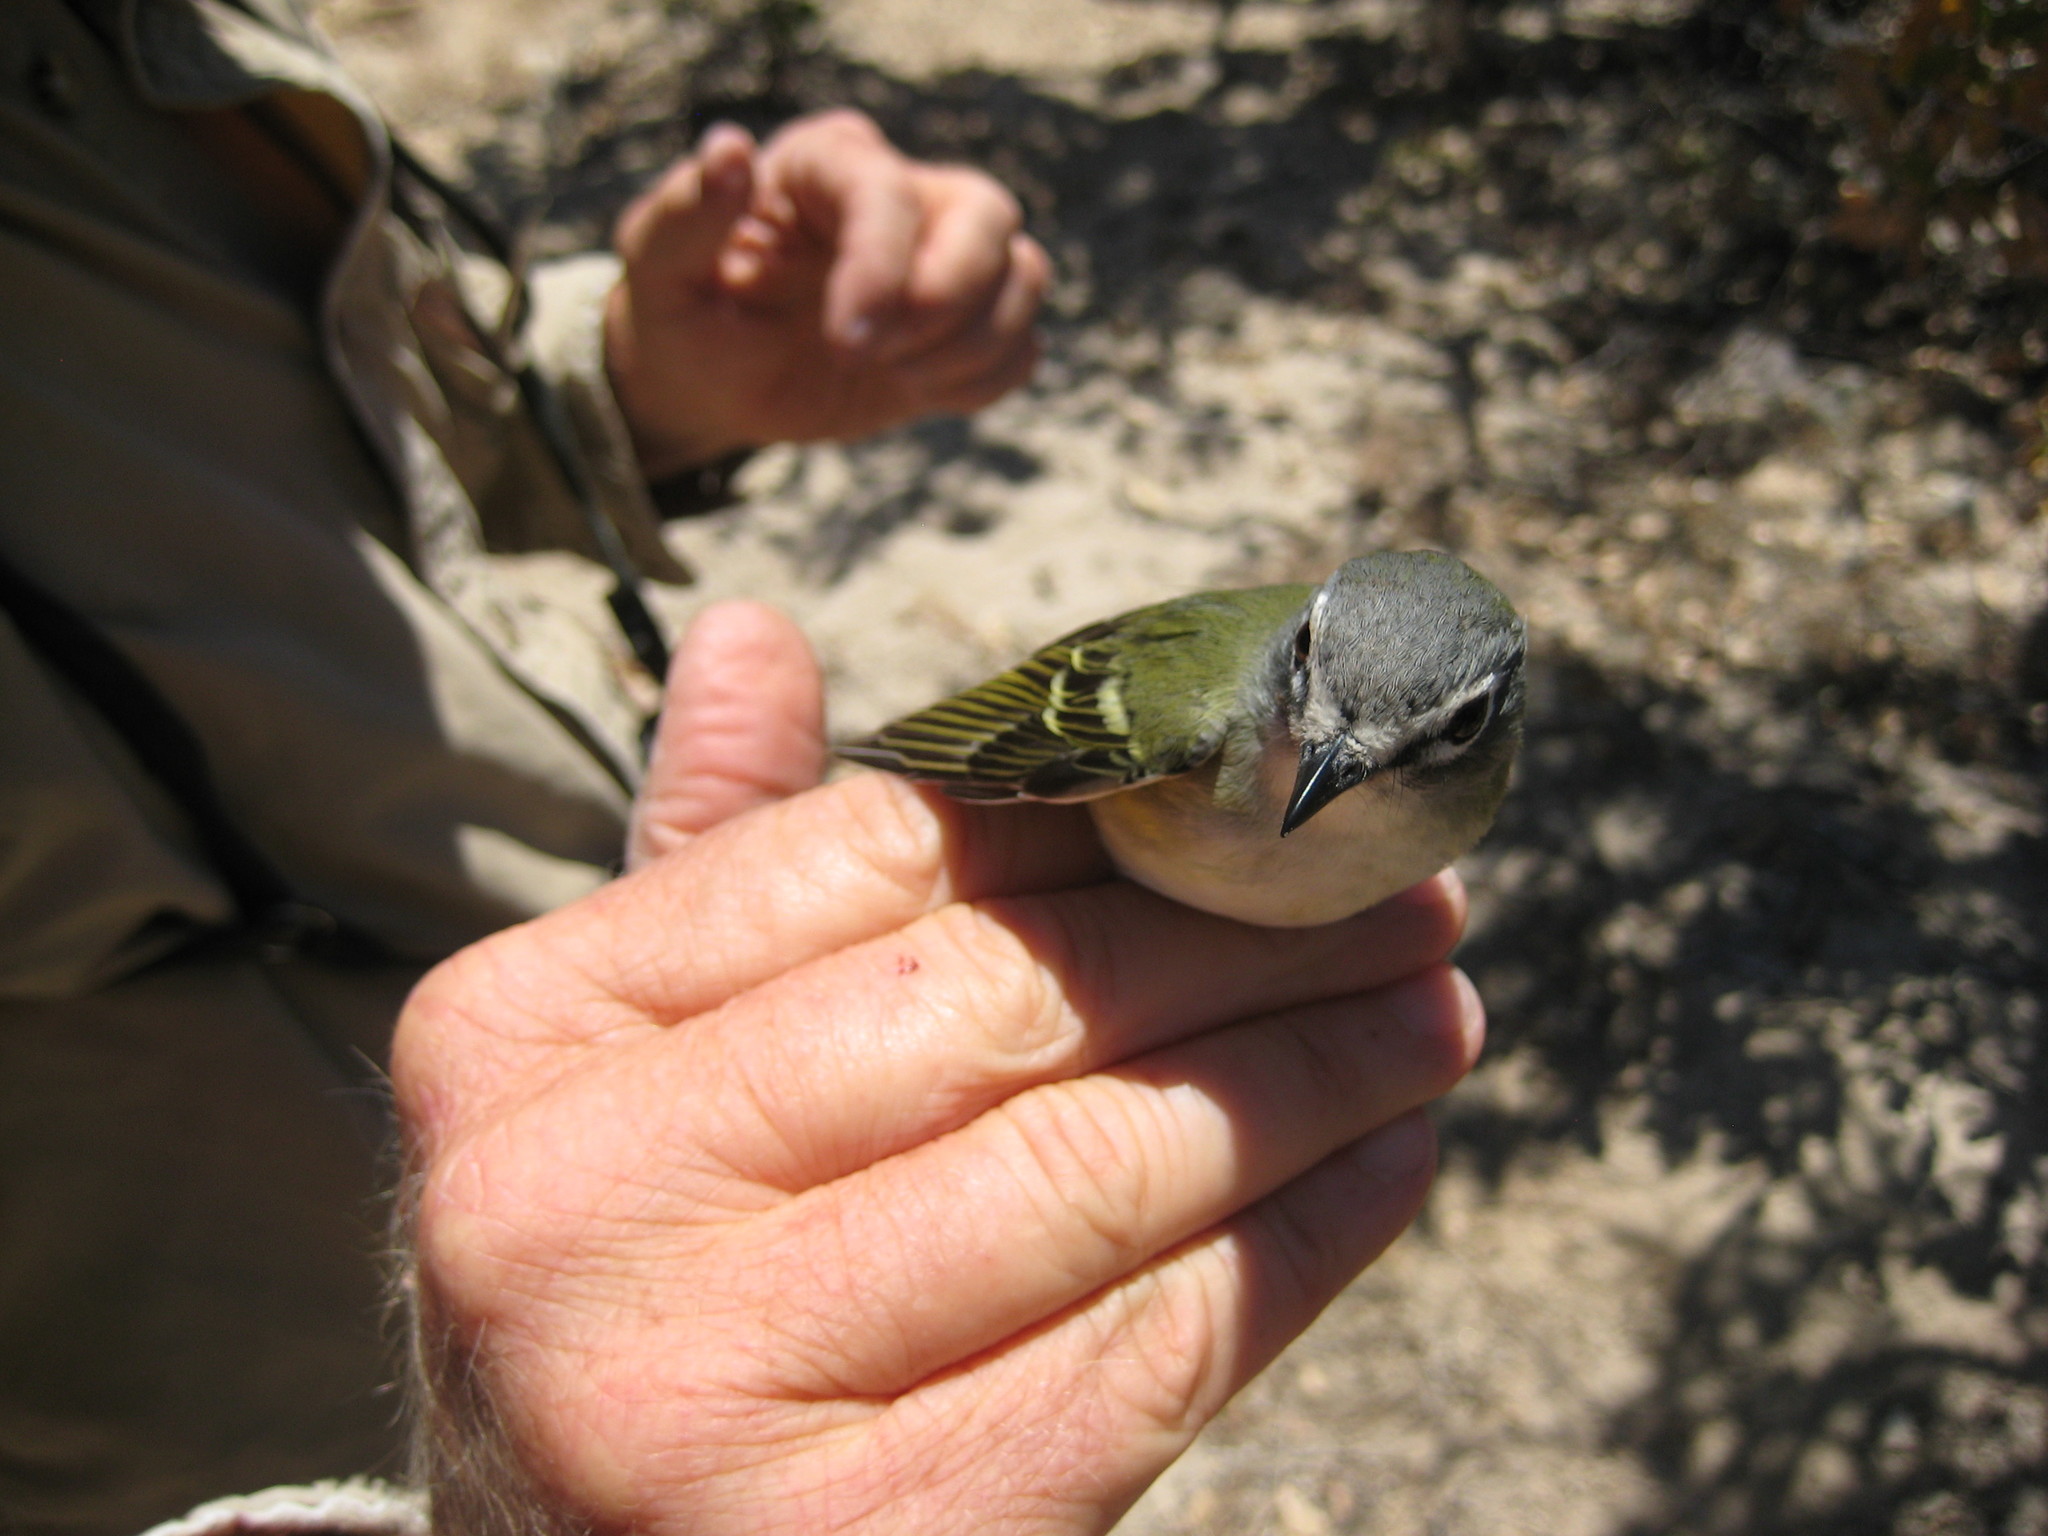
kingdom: Animalia
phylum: Chordata
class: Aves
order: Passeriformes
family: Vireonidae
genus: Vireo
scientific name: Vireo cassinii
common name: Cassin's vireo
